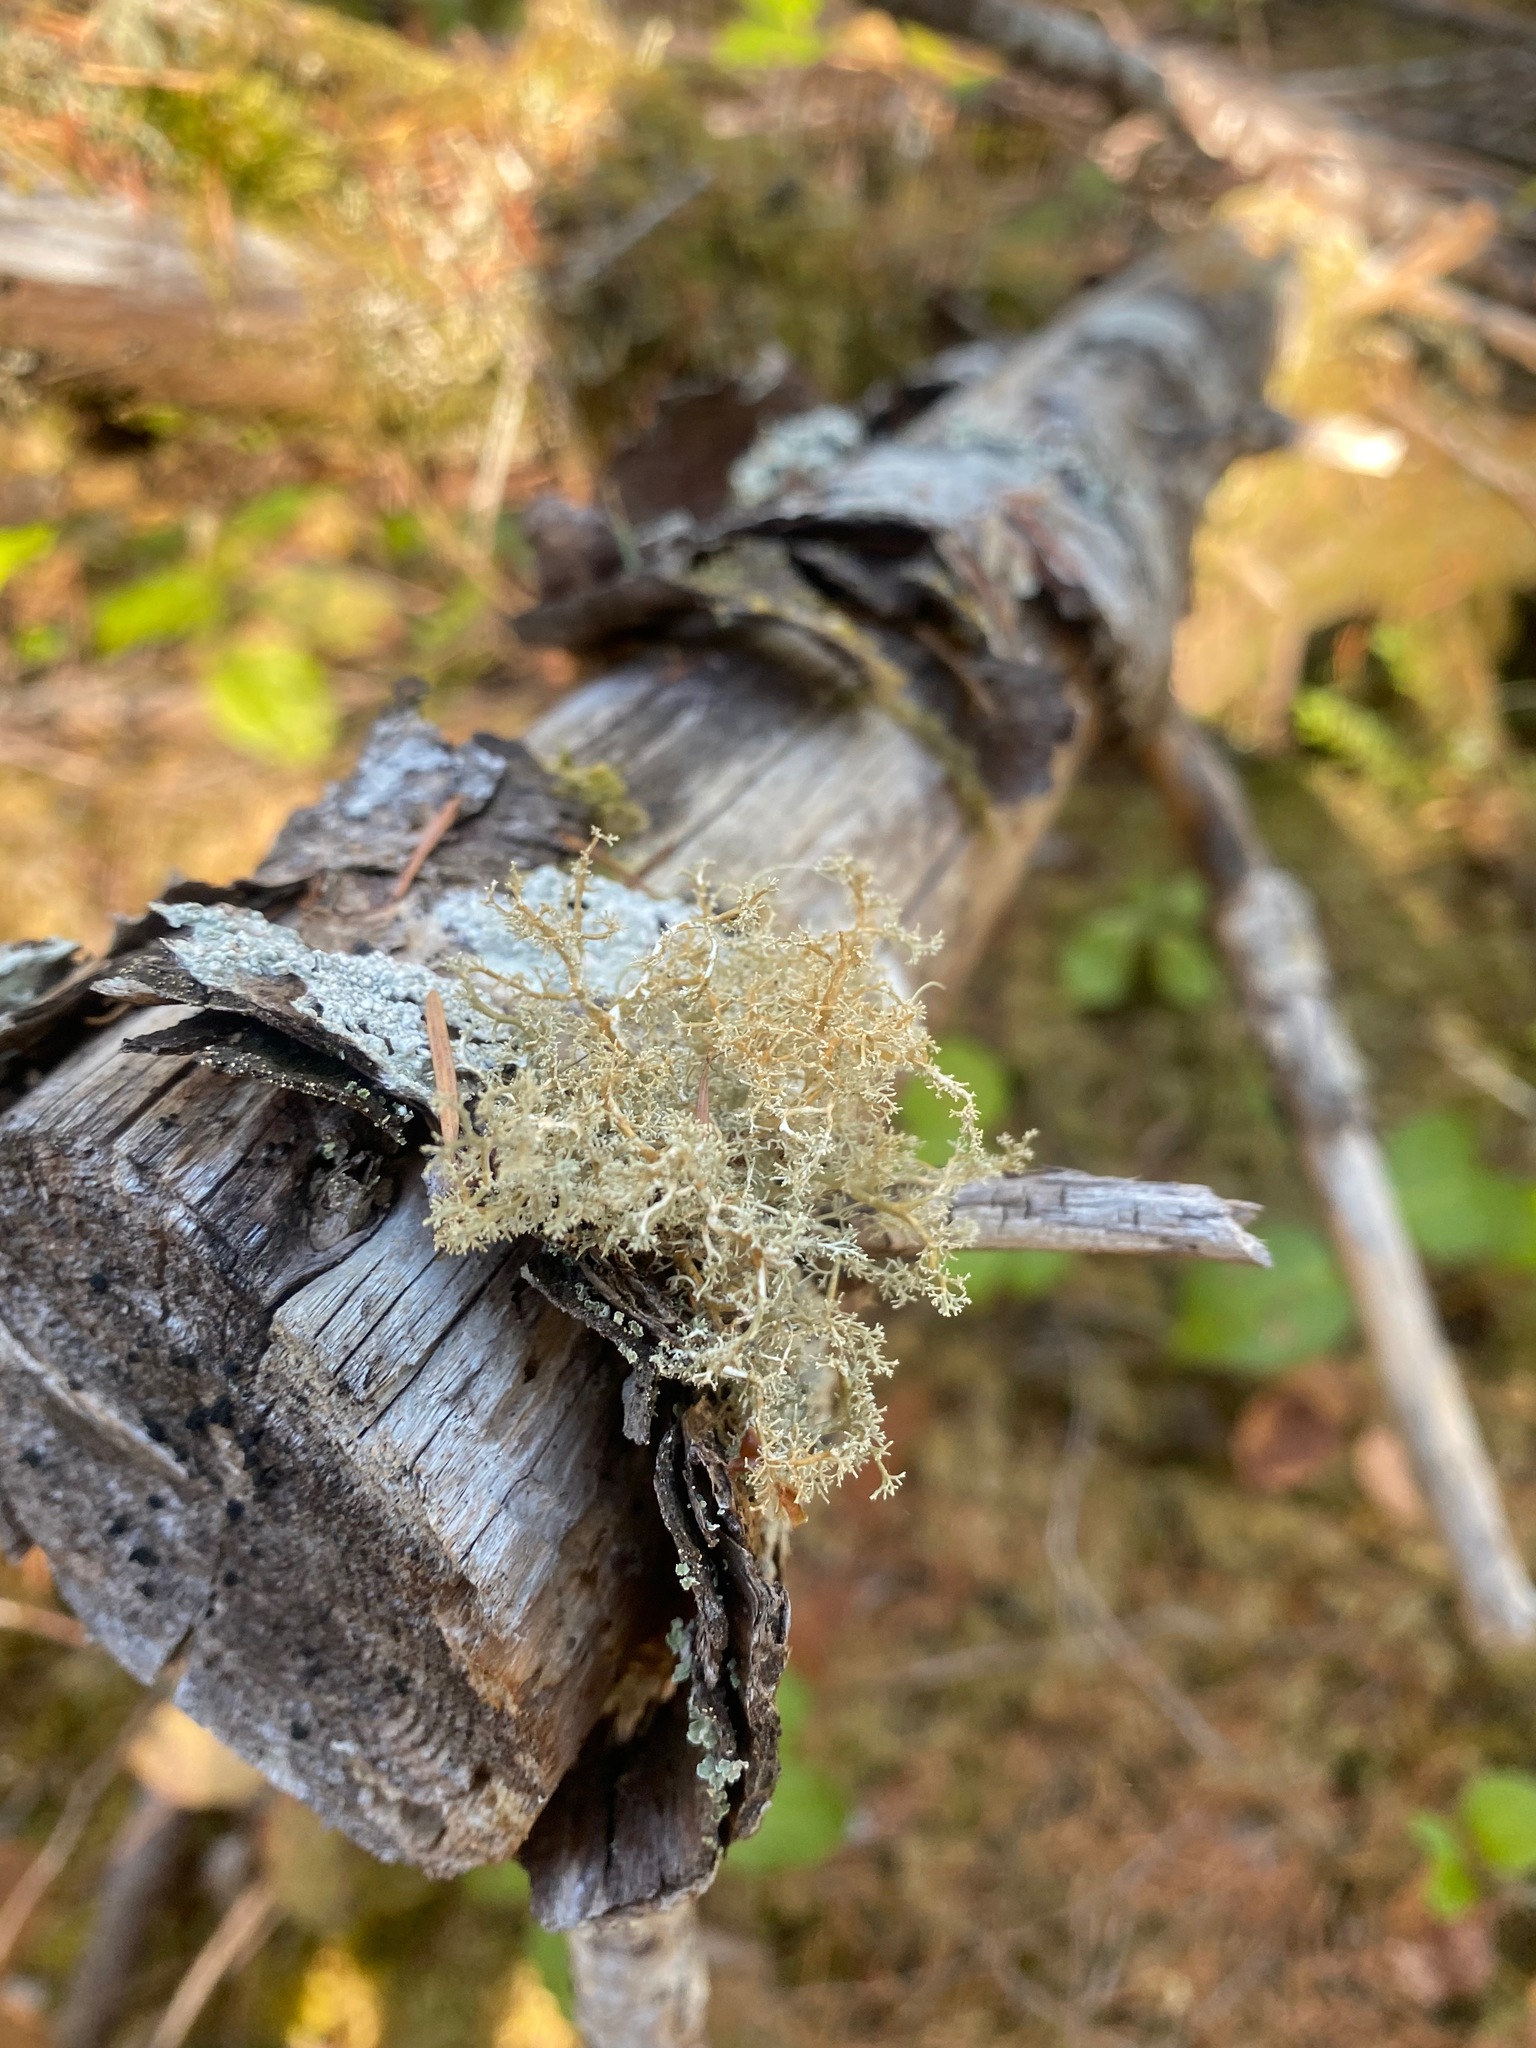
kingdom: Fungi
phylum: Ascomycota
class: Lecanoromycetes
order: Lecanorales
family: Sphaerophoraceae
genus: Sphaerophorus
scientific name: Sphaerophorus globosus
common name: Globe ball lichen
